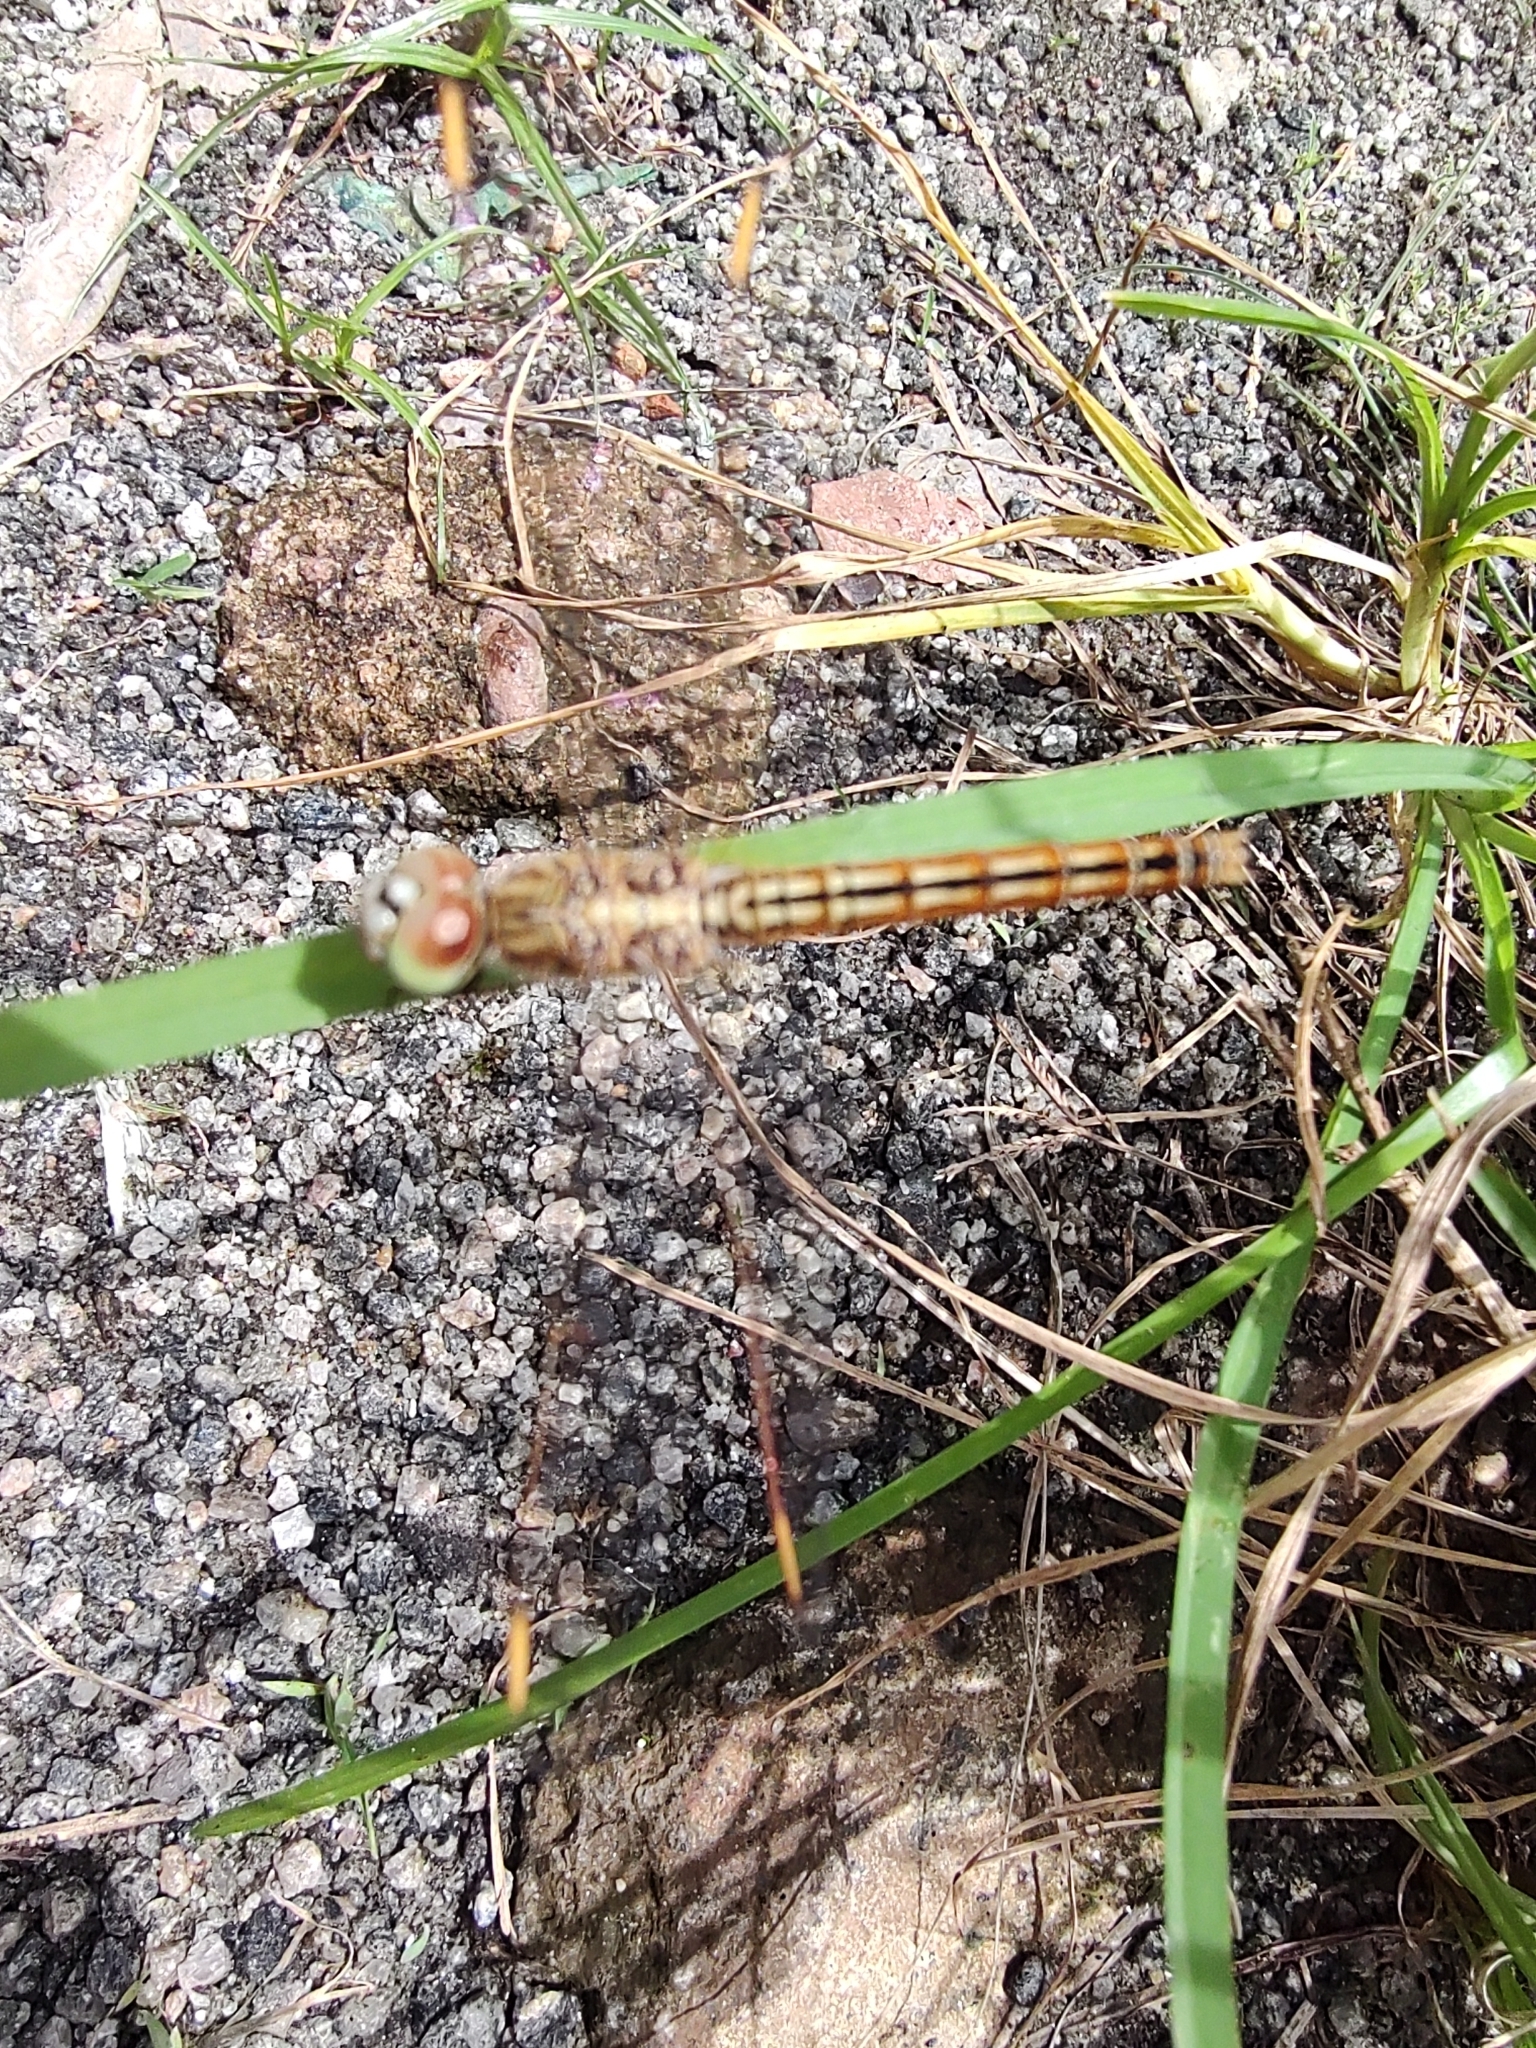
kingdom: Animalia
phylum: Arthropoda
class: Insecta
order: Odonata
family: Libellulidae
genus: Brachythemis
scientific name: Brachythemis contaminata
